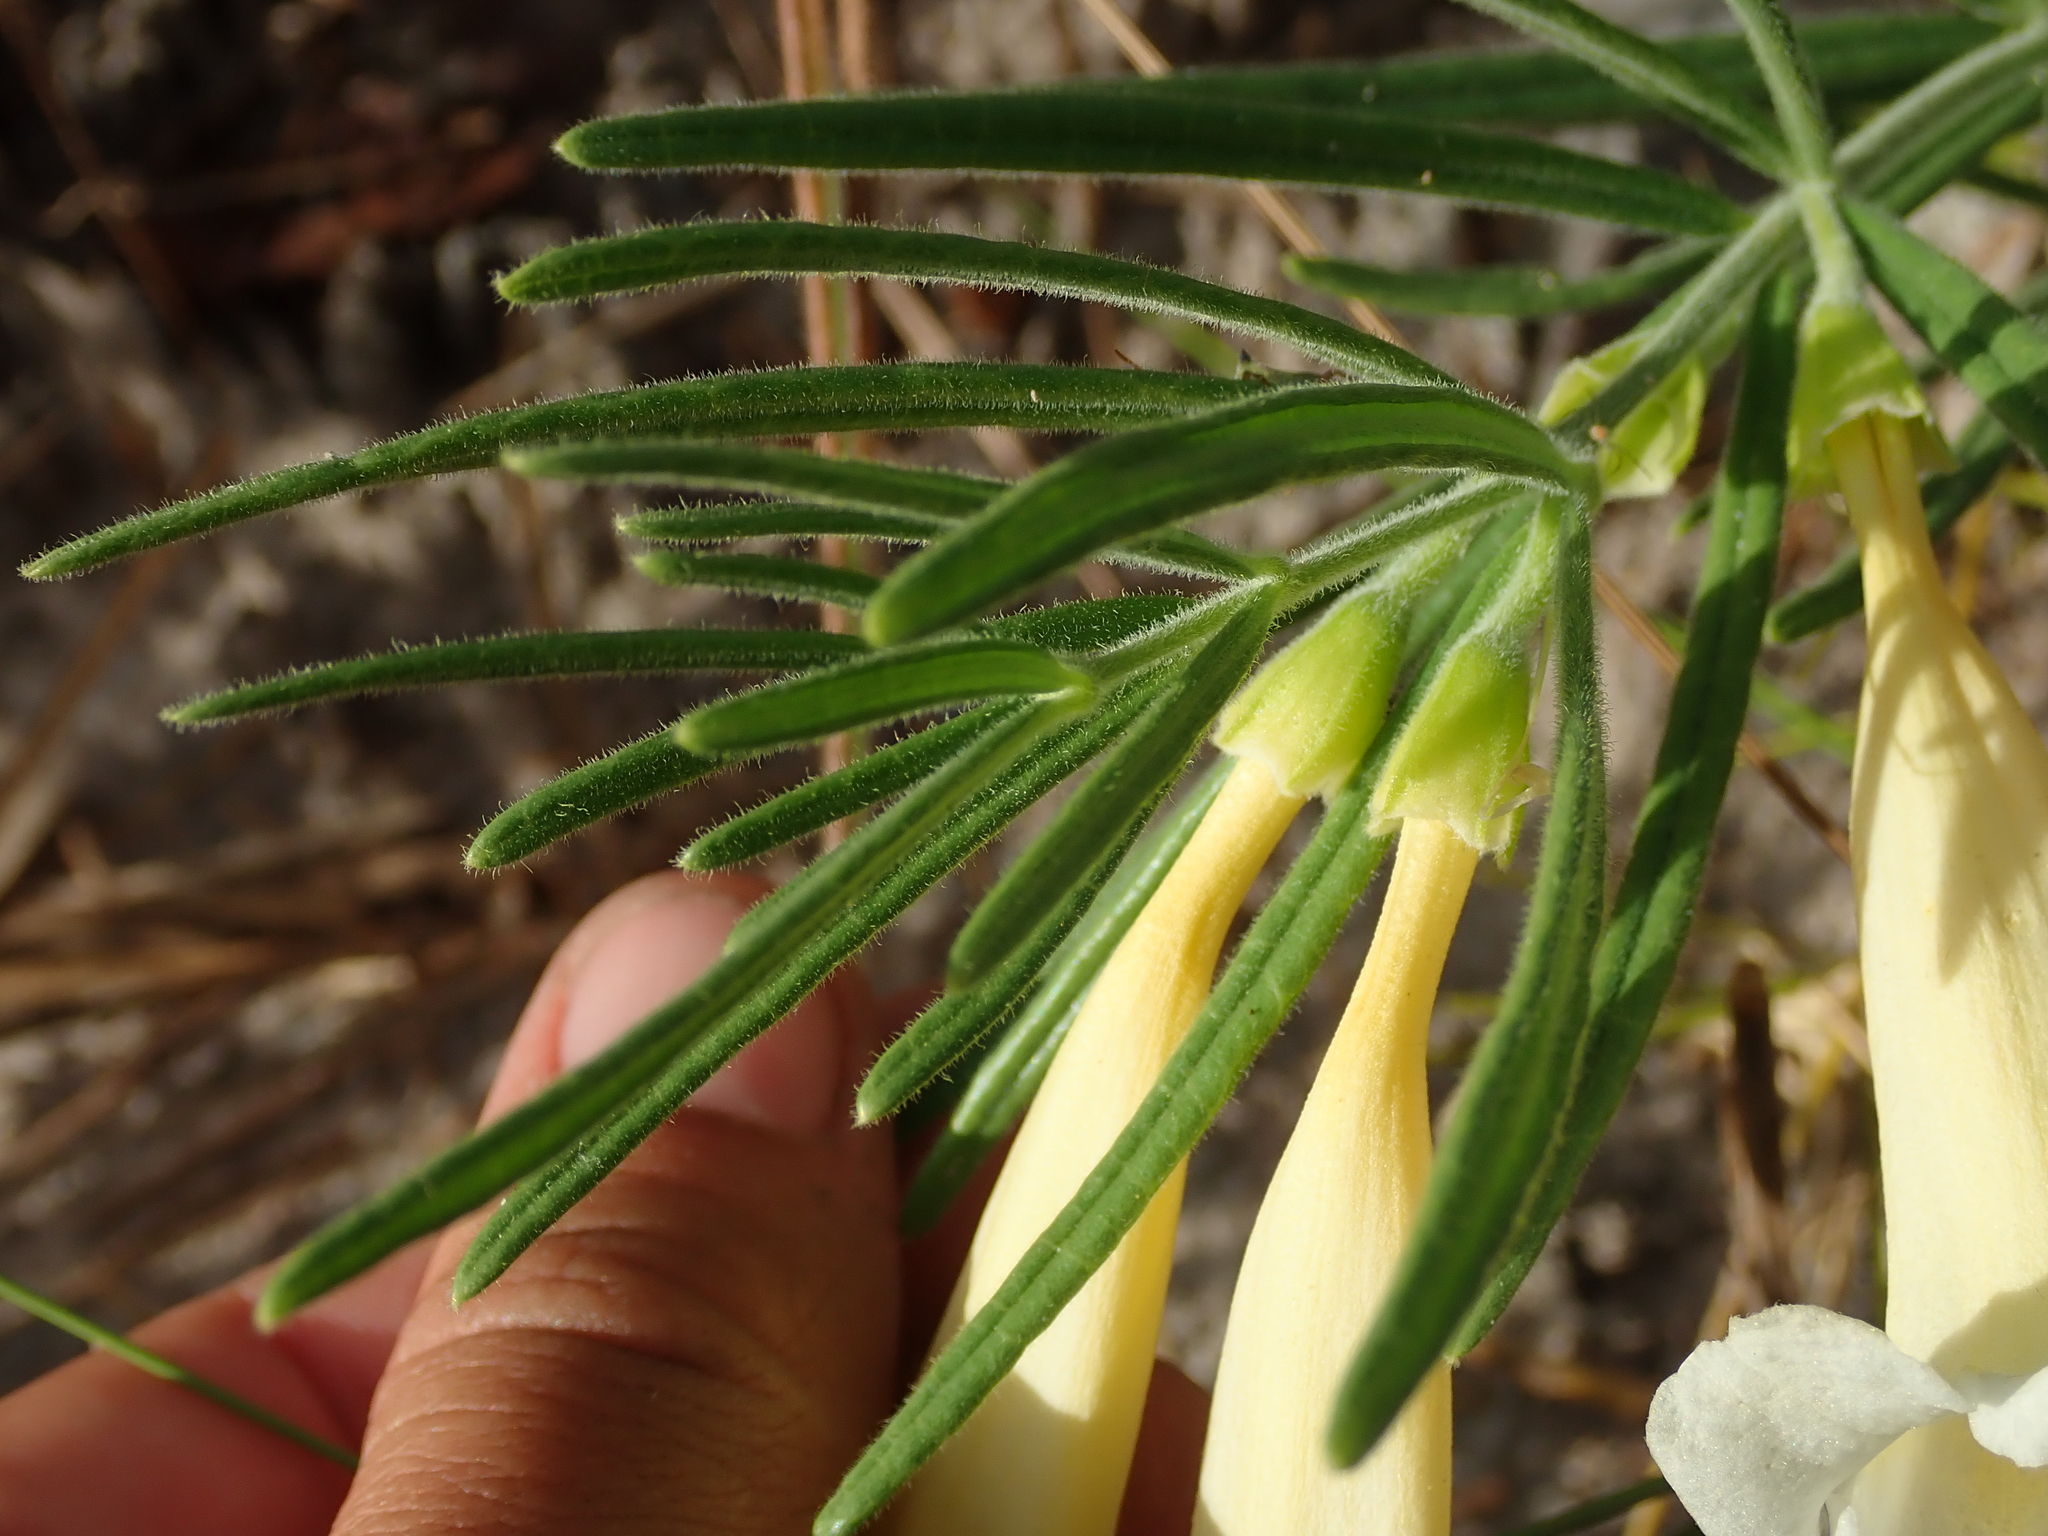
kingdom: Plantae
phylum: Tracheophyta
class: Magnoliopsida
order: Lamiales
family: Bignoniaceae
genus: Anemopaegma
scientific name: Anemopaegma arvense
